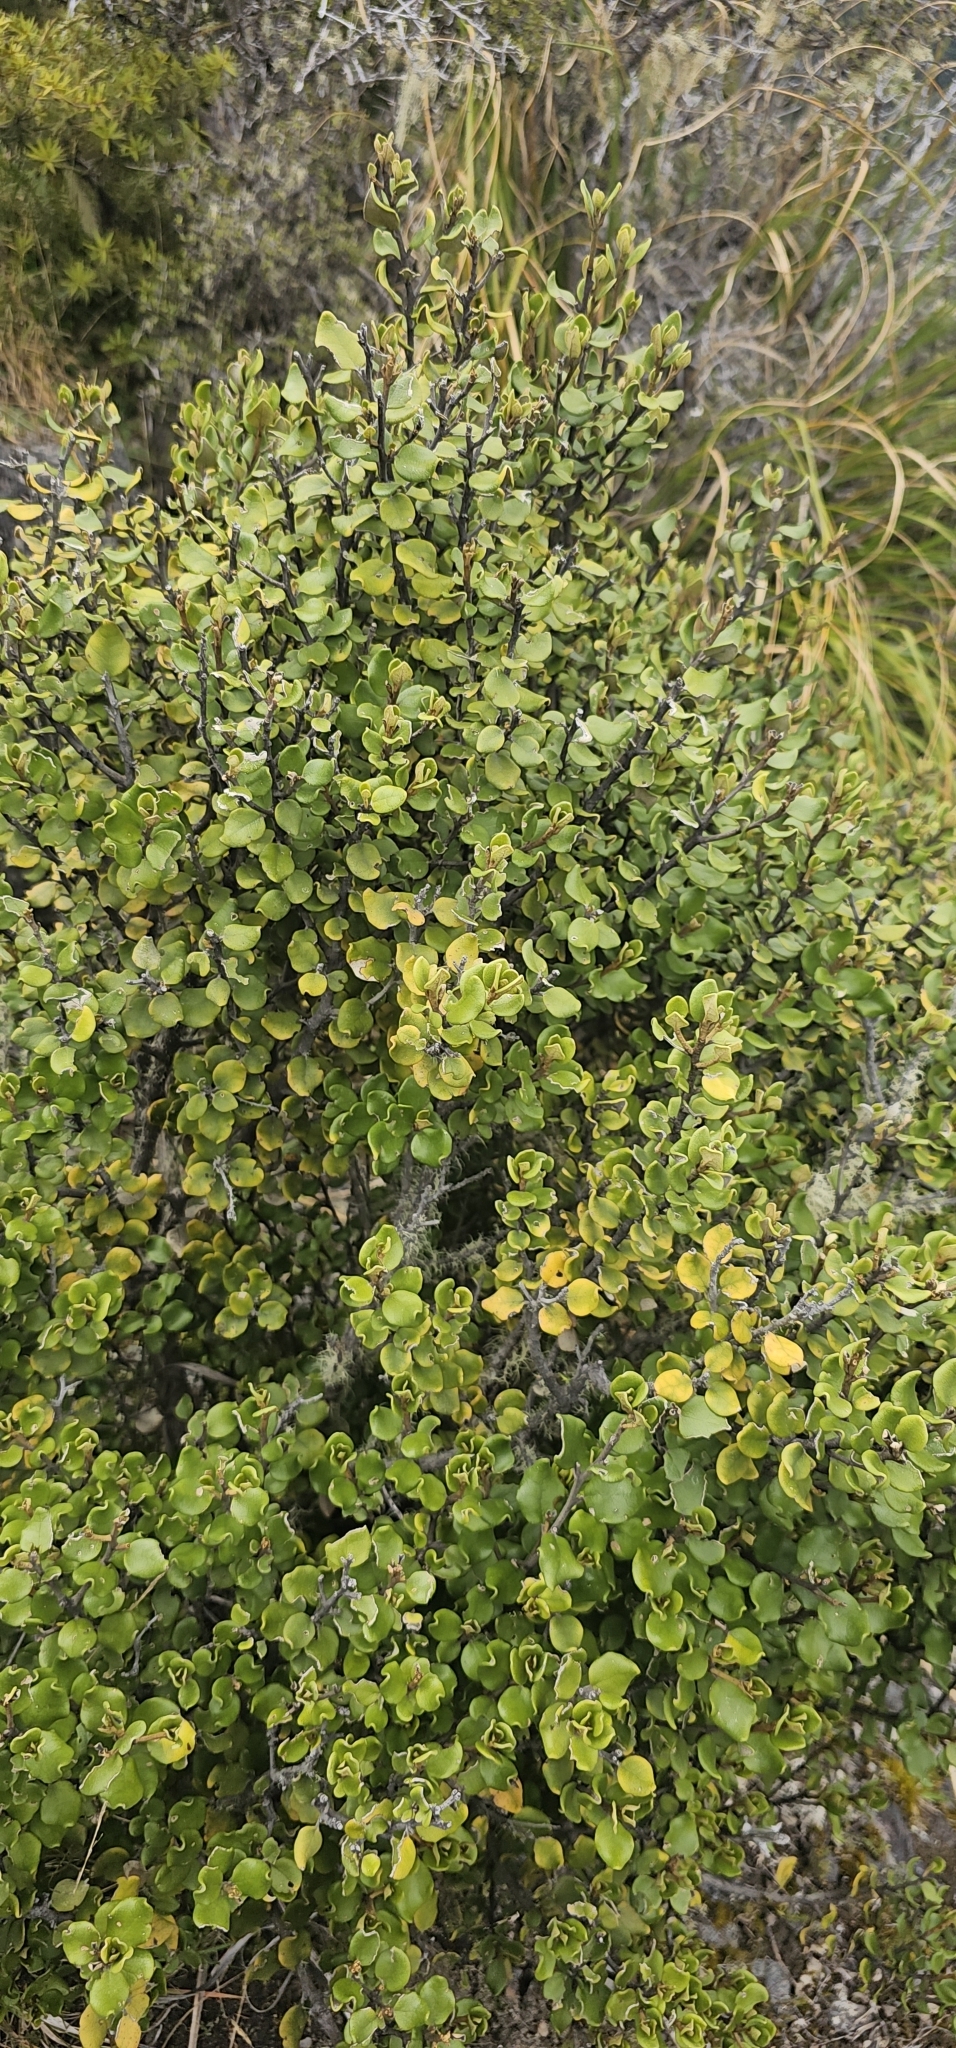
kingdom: Plantae
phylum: Tracheophyta
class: Magnoliopsida
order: Asterales
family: Asteraceae
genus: Olearia
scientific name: Olearia coriacea
